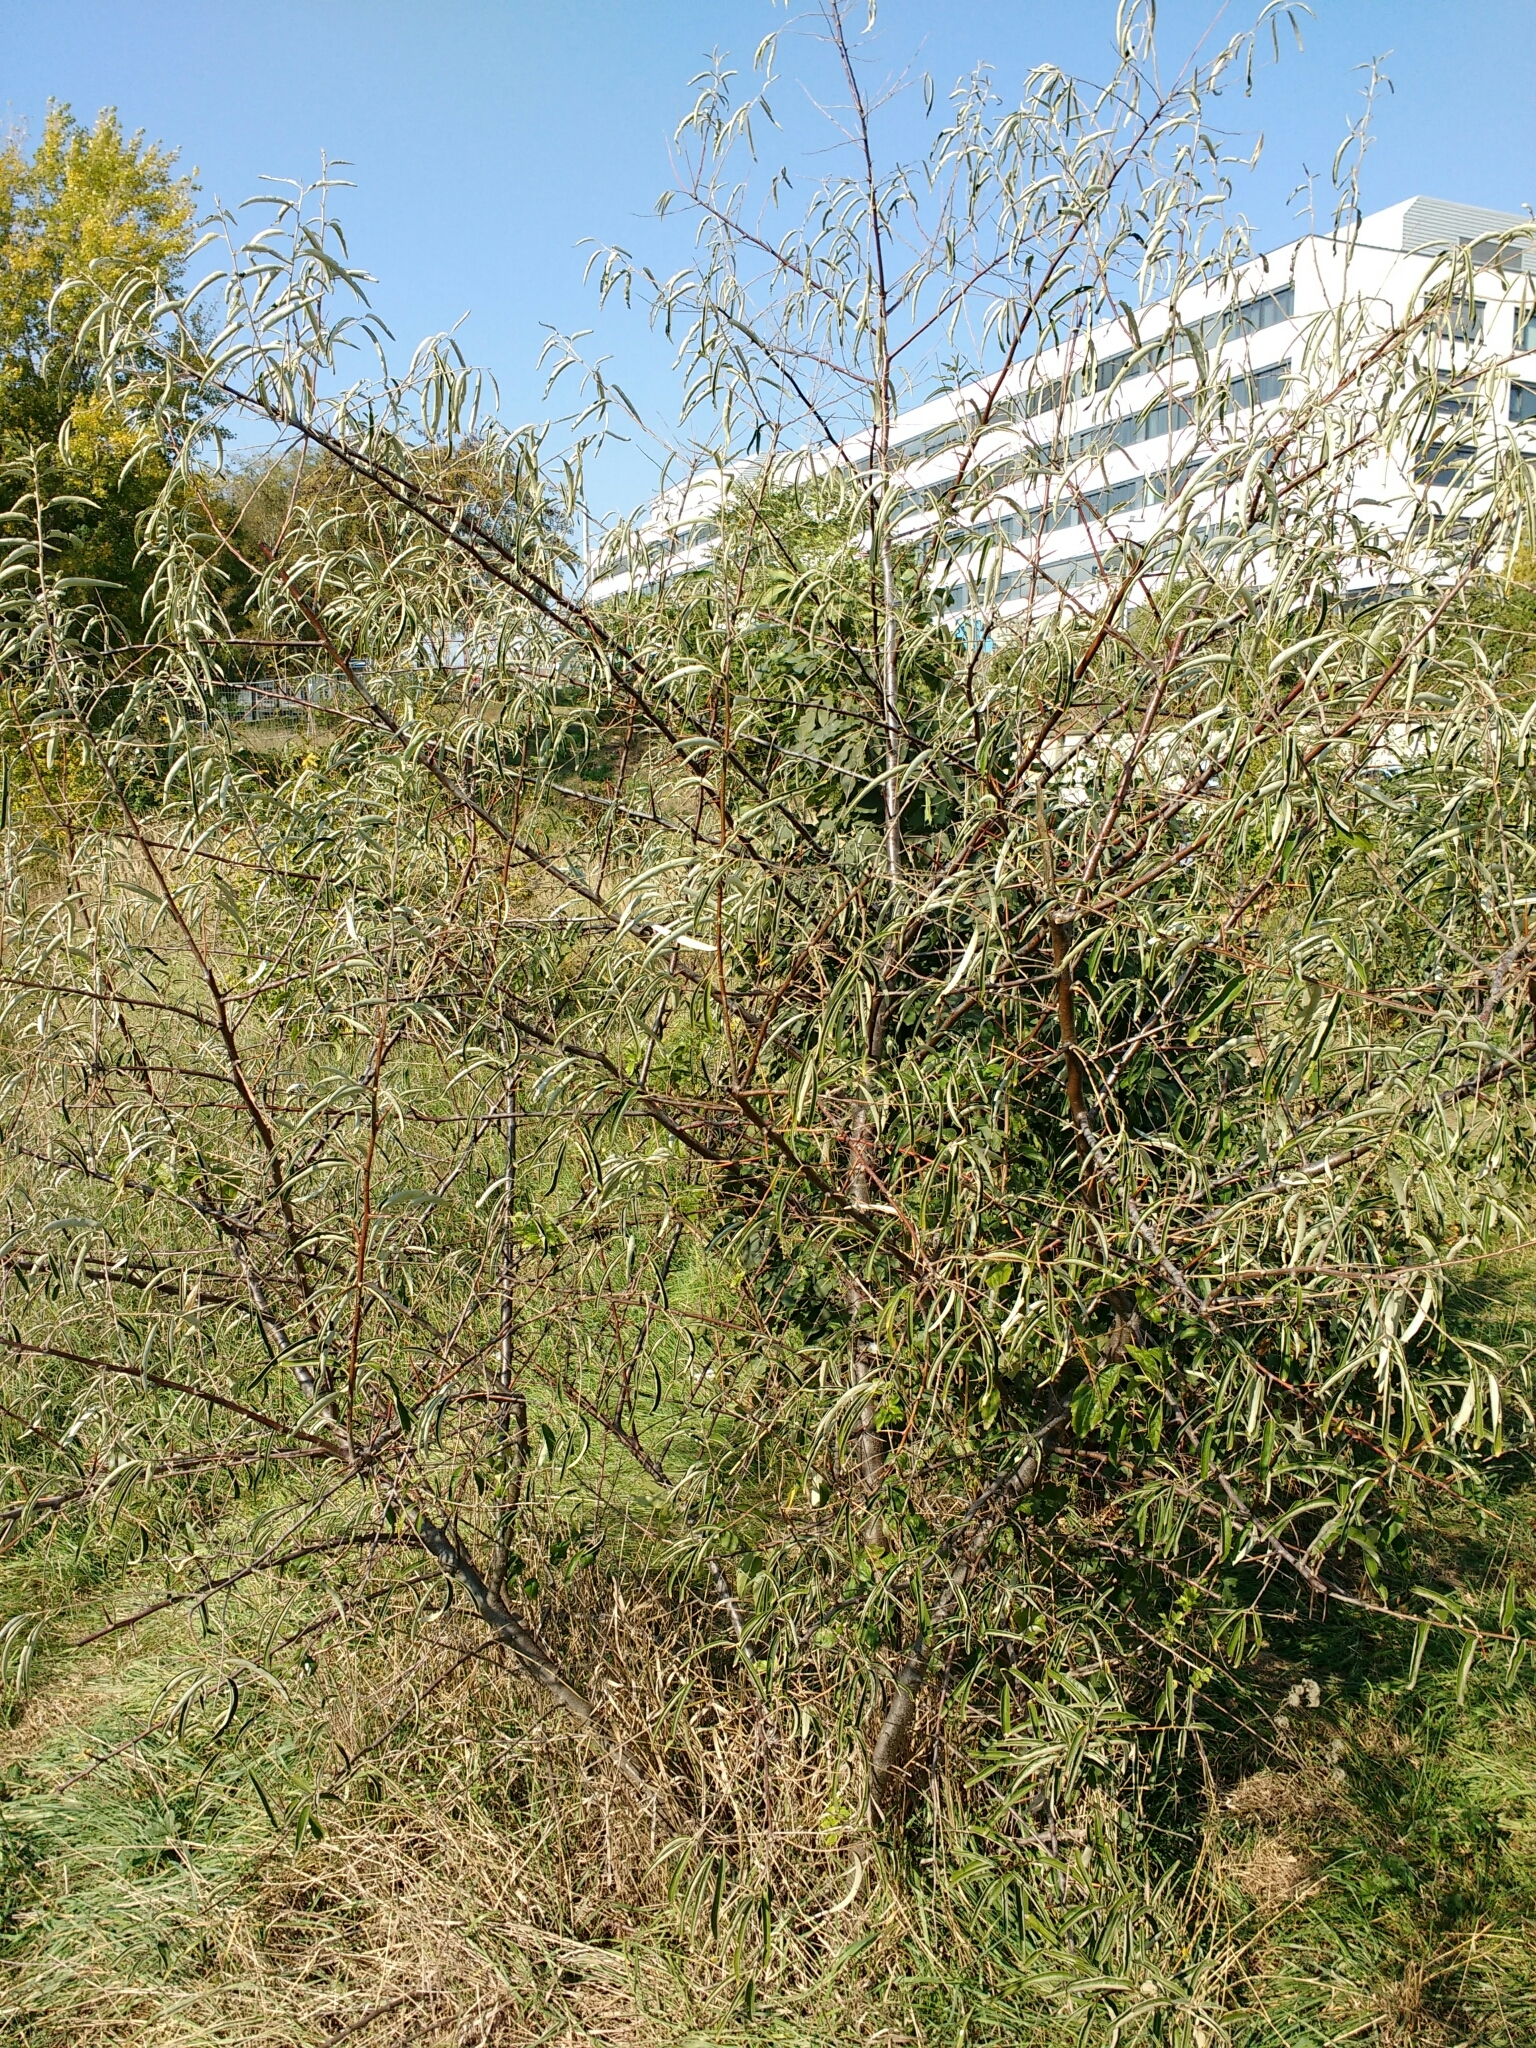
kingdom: Plantae
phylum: Tracheophyta
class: Magnoliopsida
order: Rosales
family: Elaeagnaceae
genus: Elaeagnus
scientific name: Elaeagnus angustifolia
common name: Russian olive
